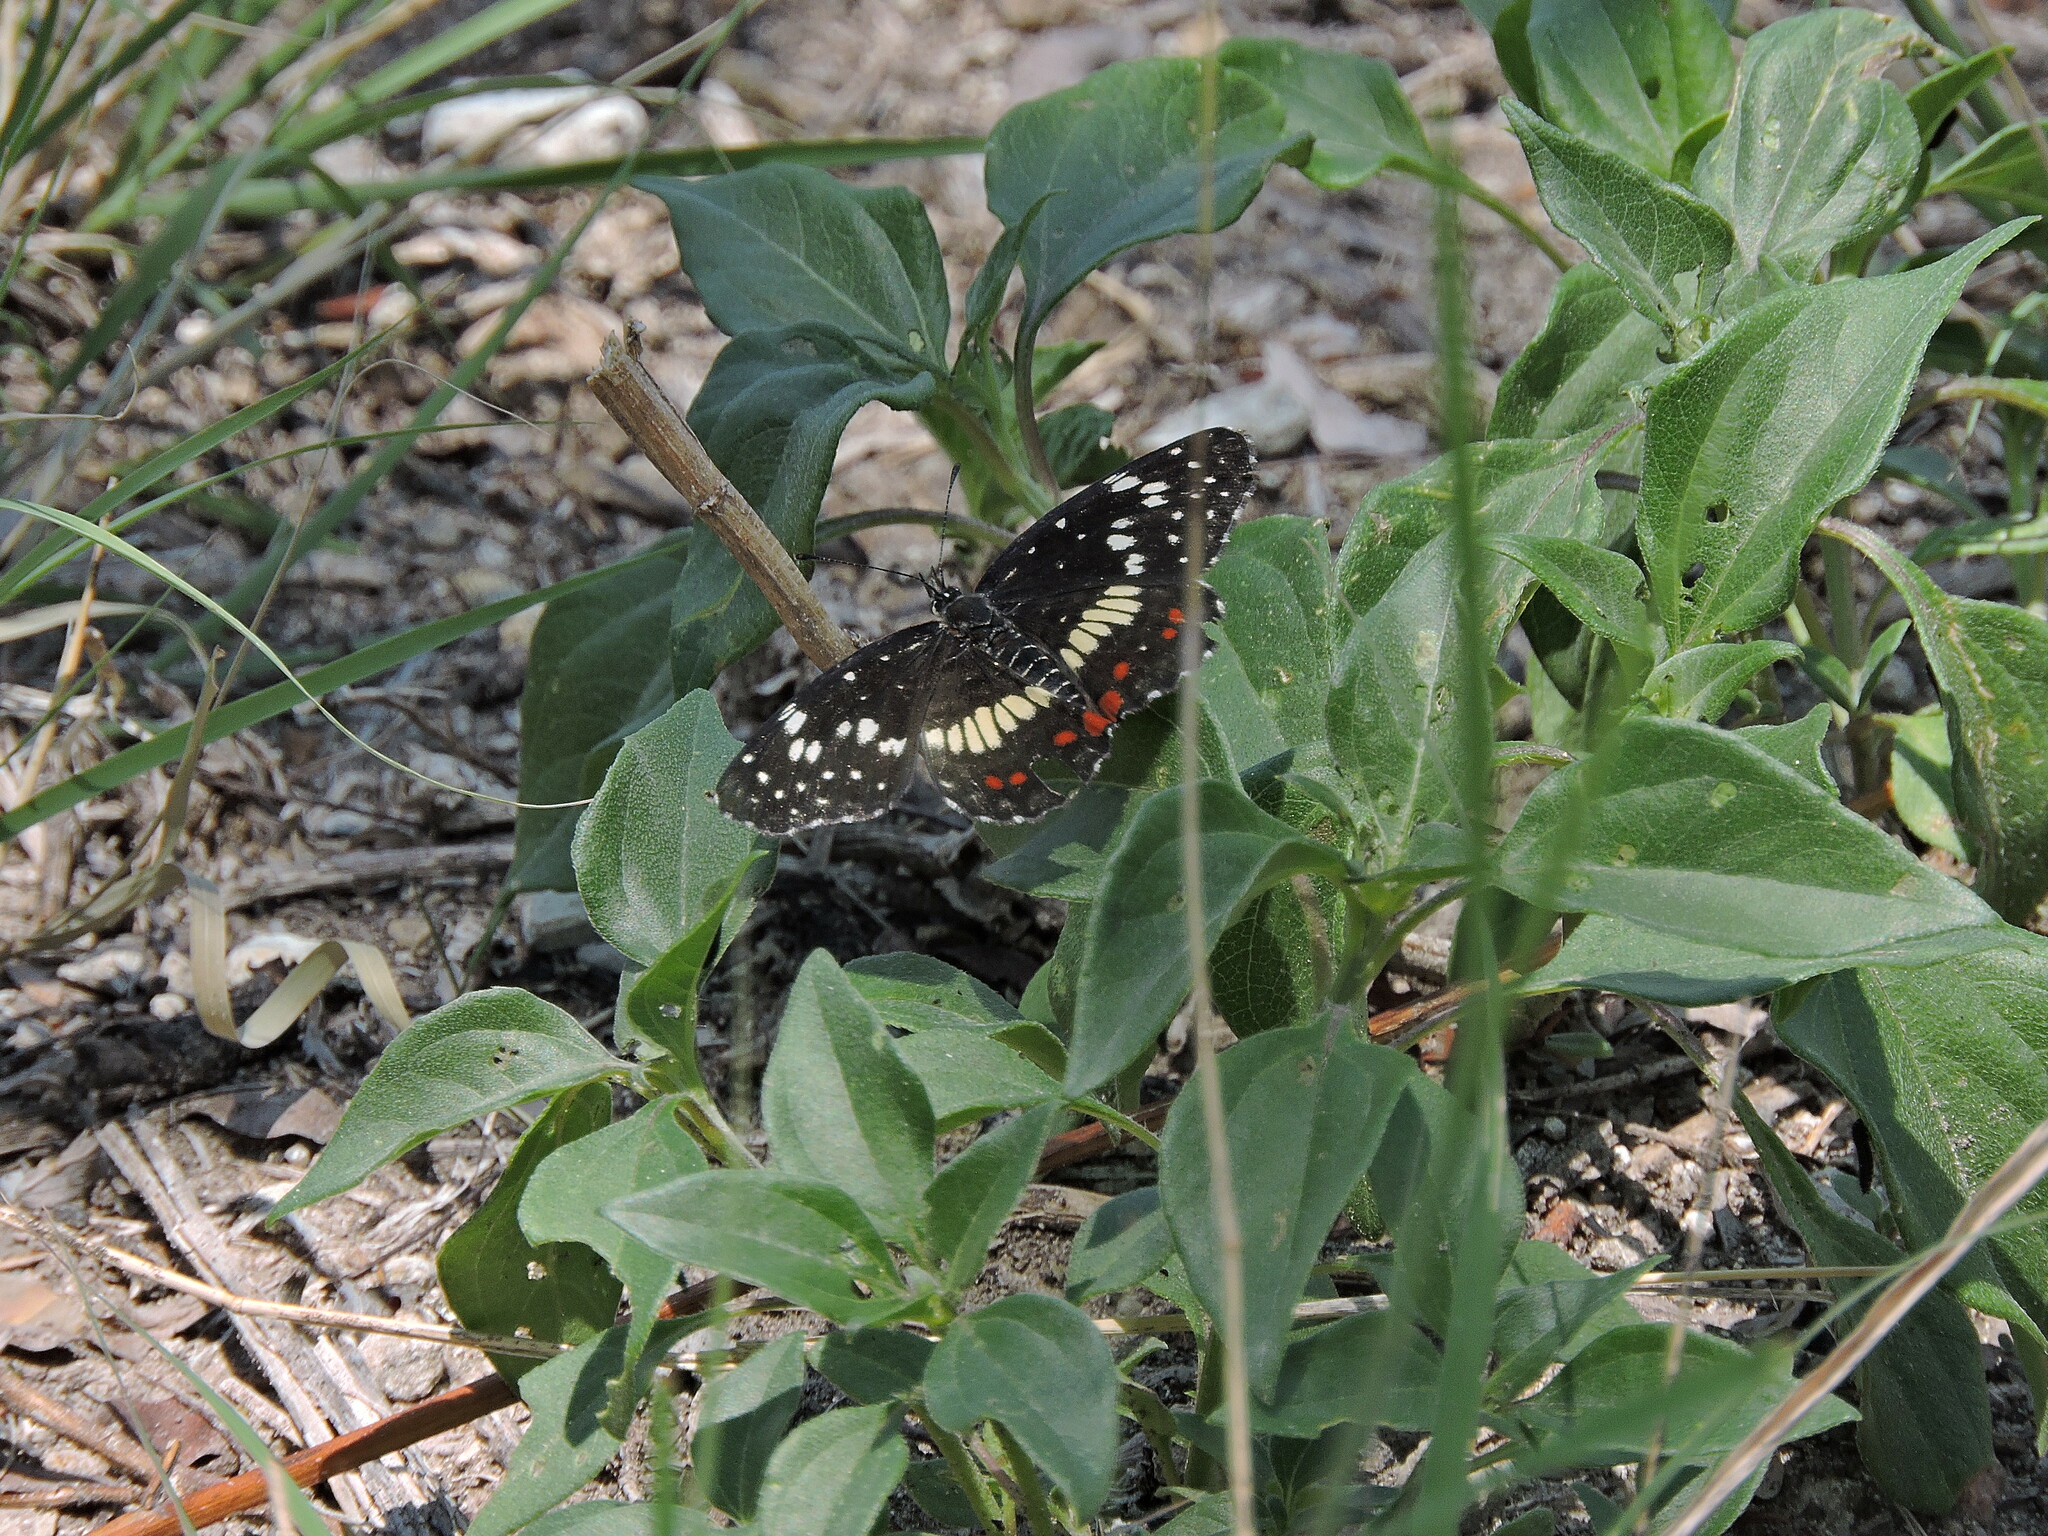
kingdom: Animalia
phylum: Arthropoda
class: Insecta
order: Lepidoptera
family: Nymphalidae
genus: Chlosyne
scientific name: Chlosyne marina
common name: Red-spotted patch
